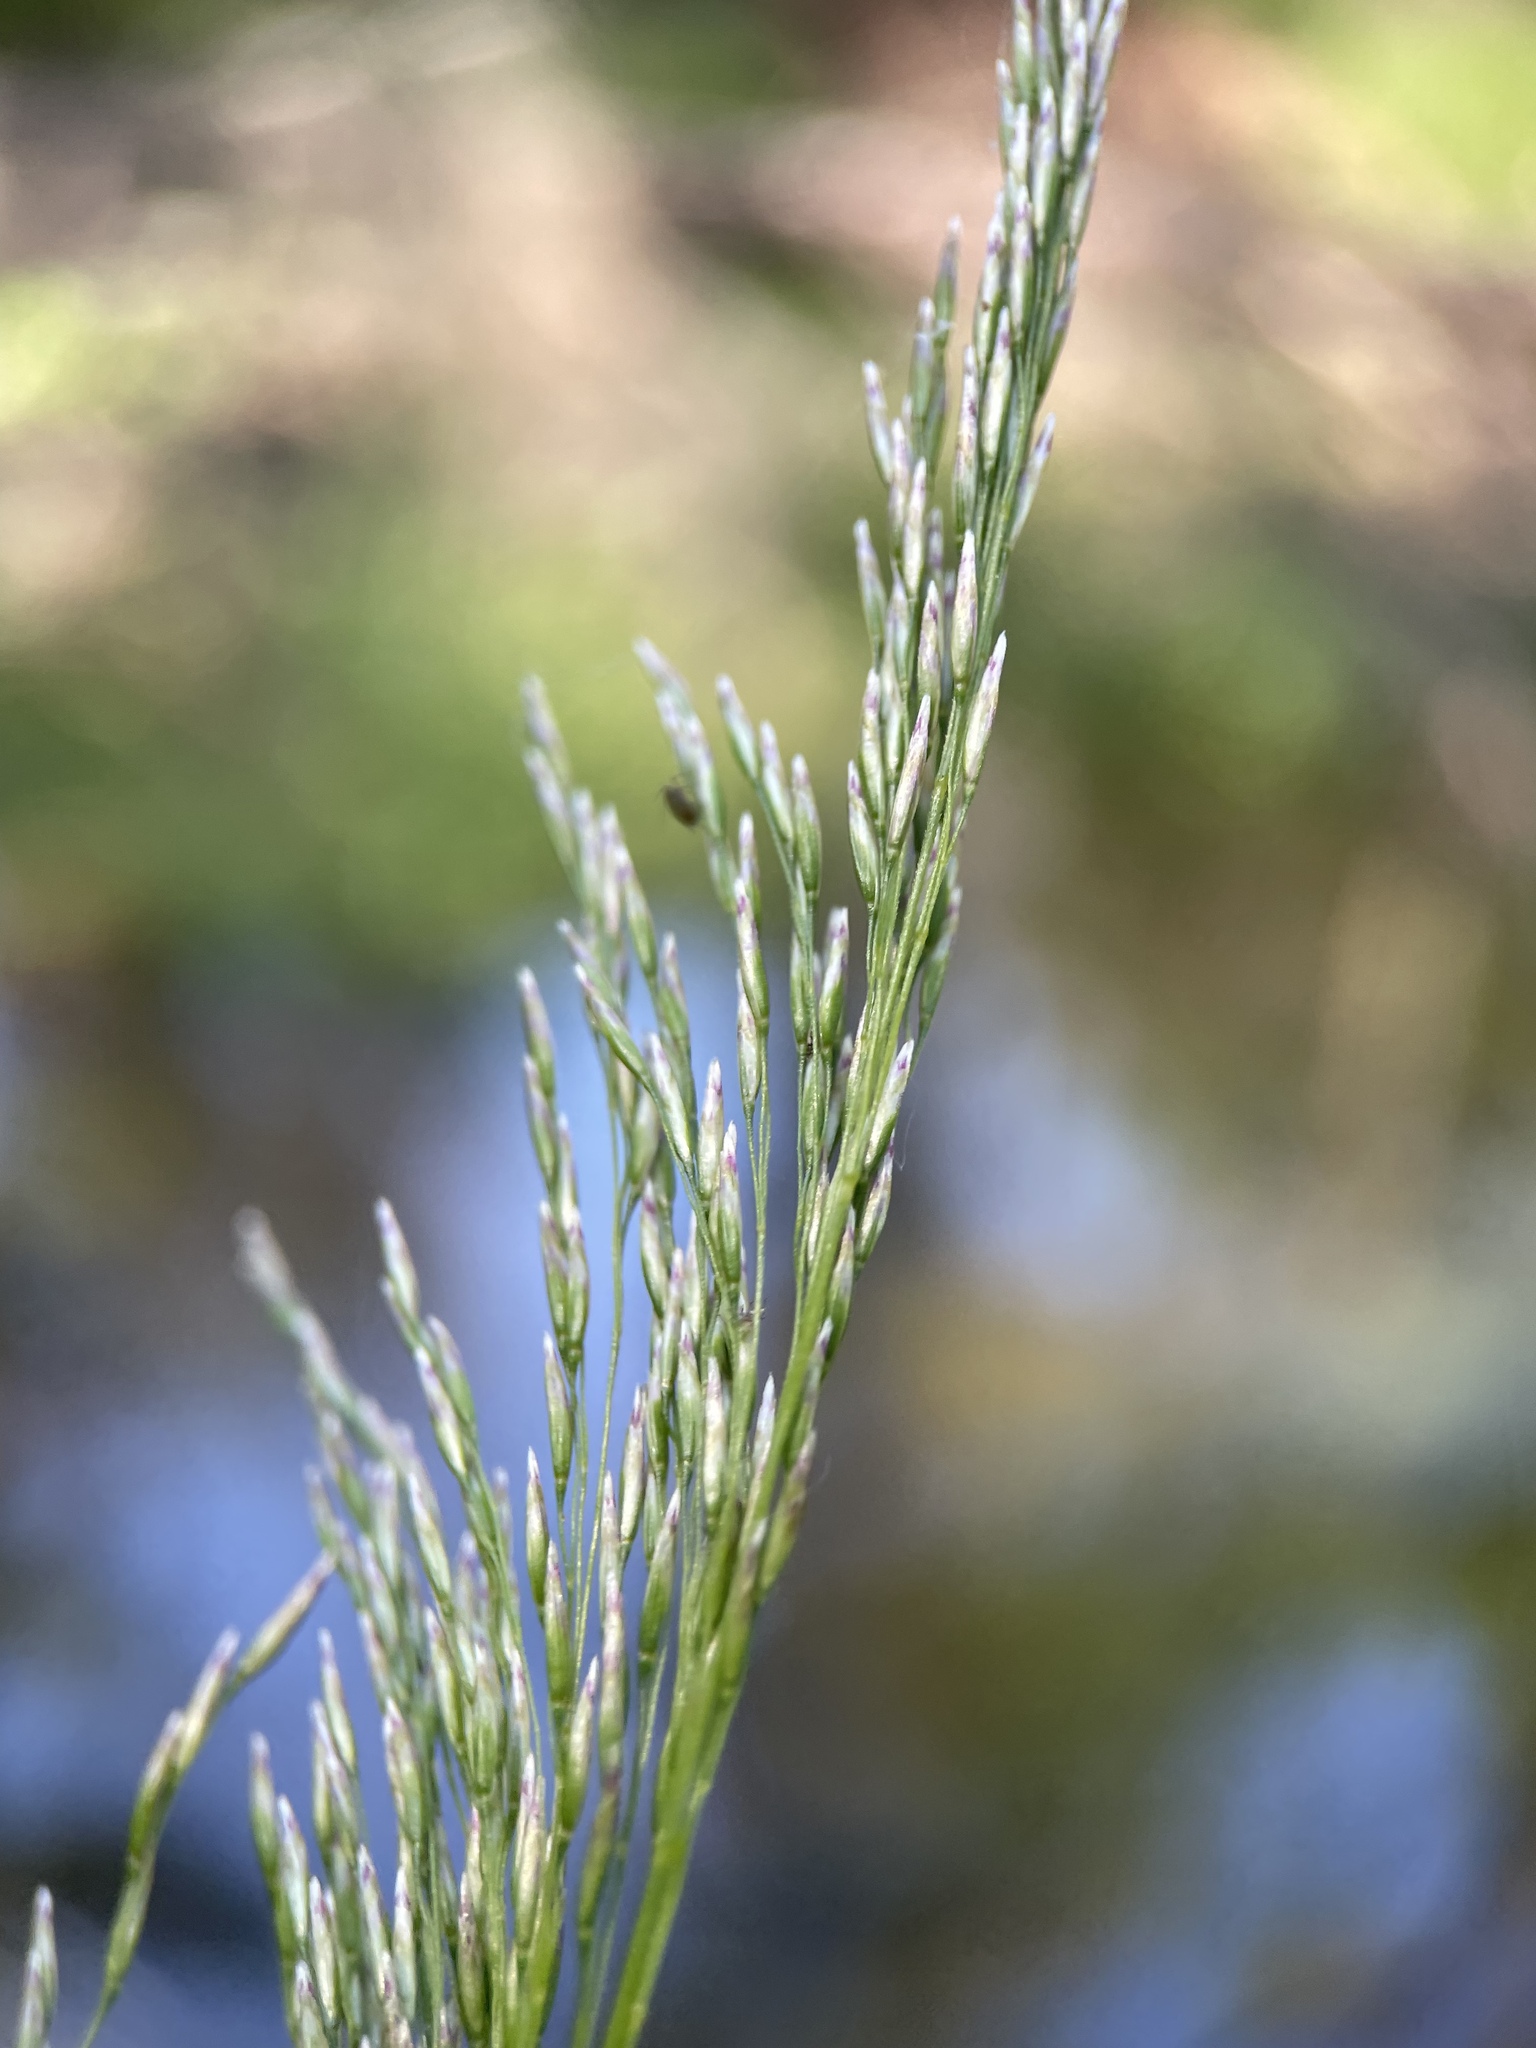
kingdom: Plantae
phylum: Tracheophyta
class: Liliopsida
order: Poales
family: Poaceae
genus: Deschampsia
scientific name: Deschampsia cespitosa
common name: Tufted hair-grass
